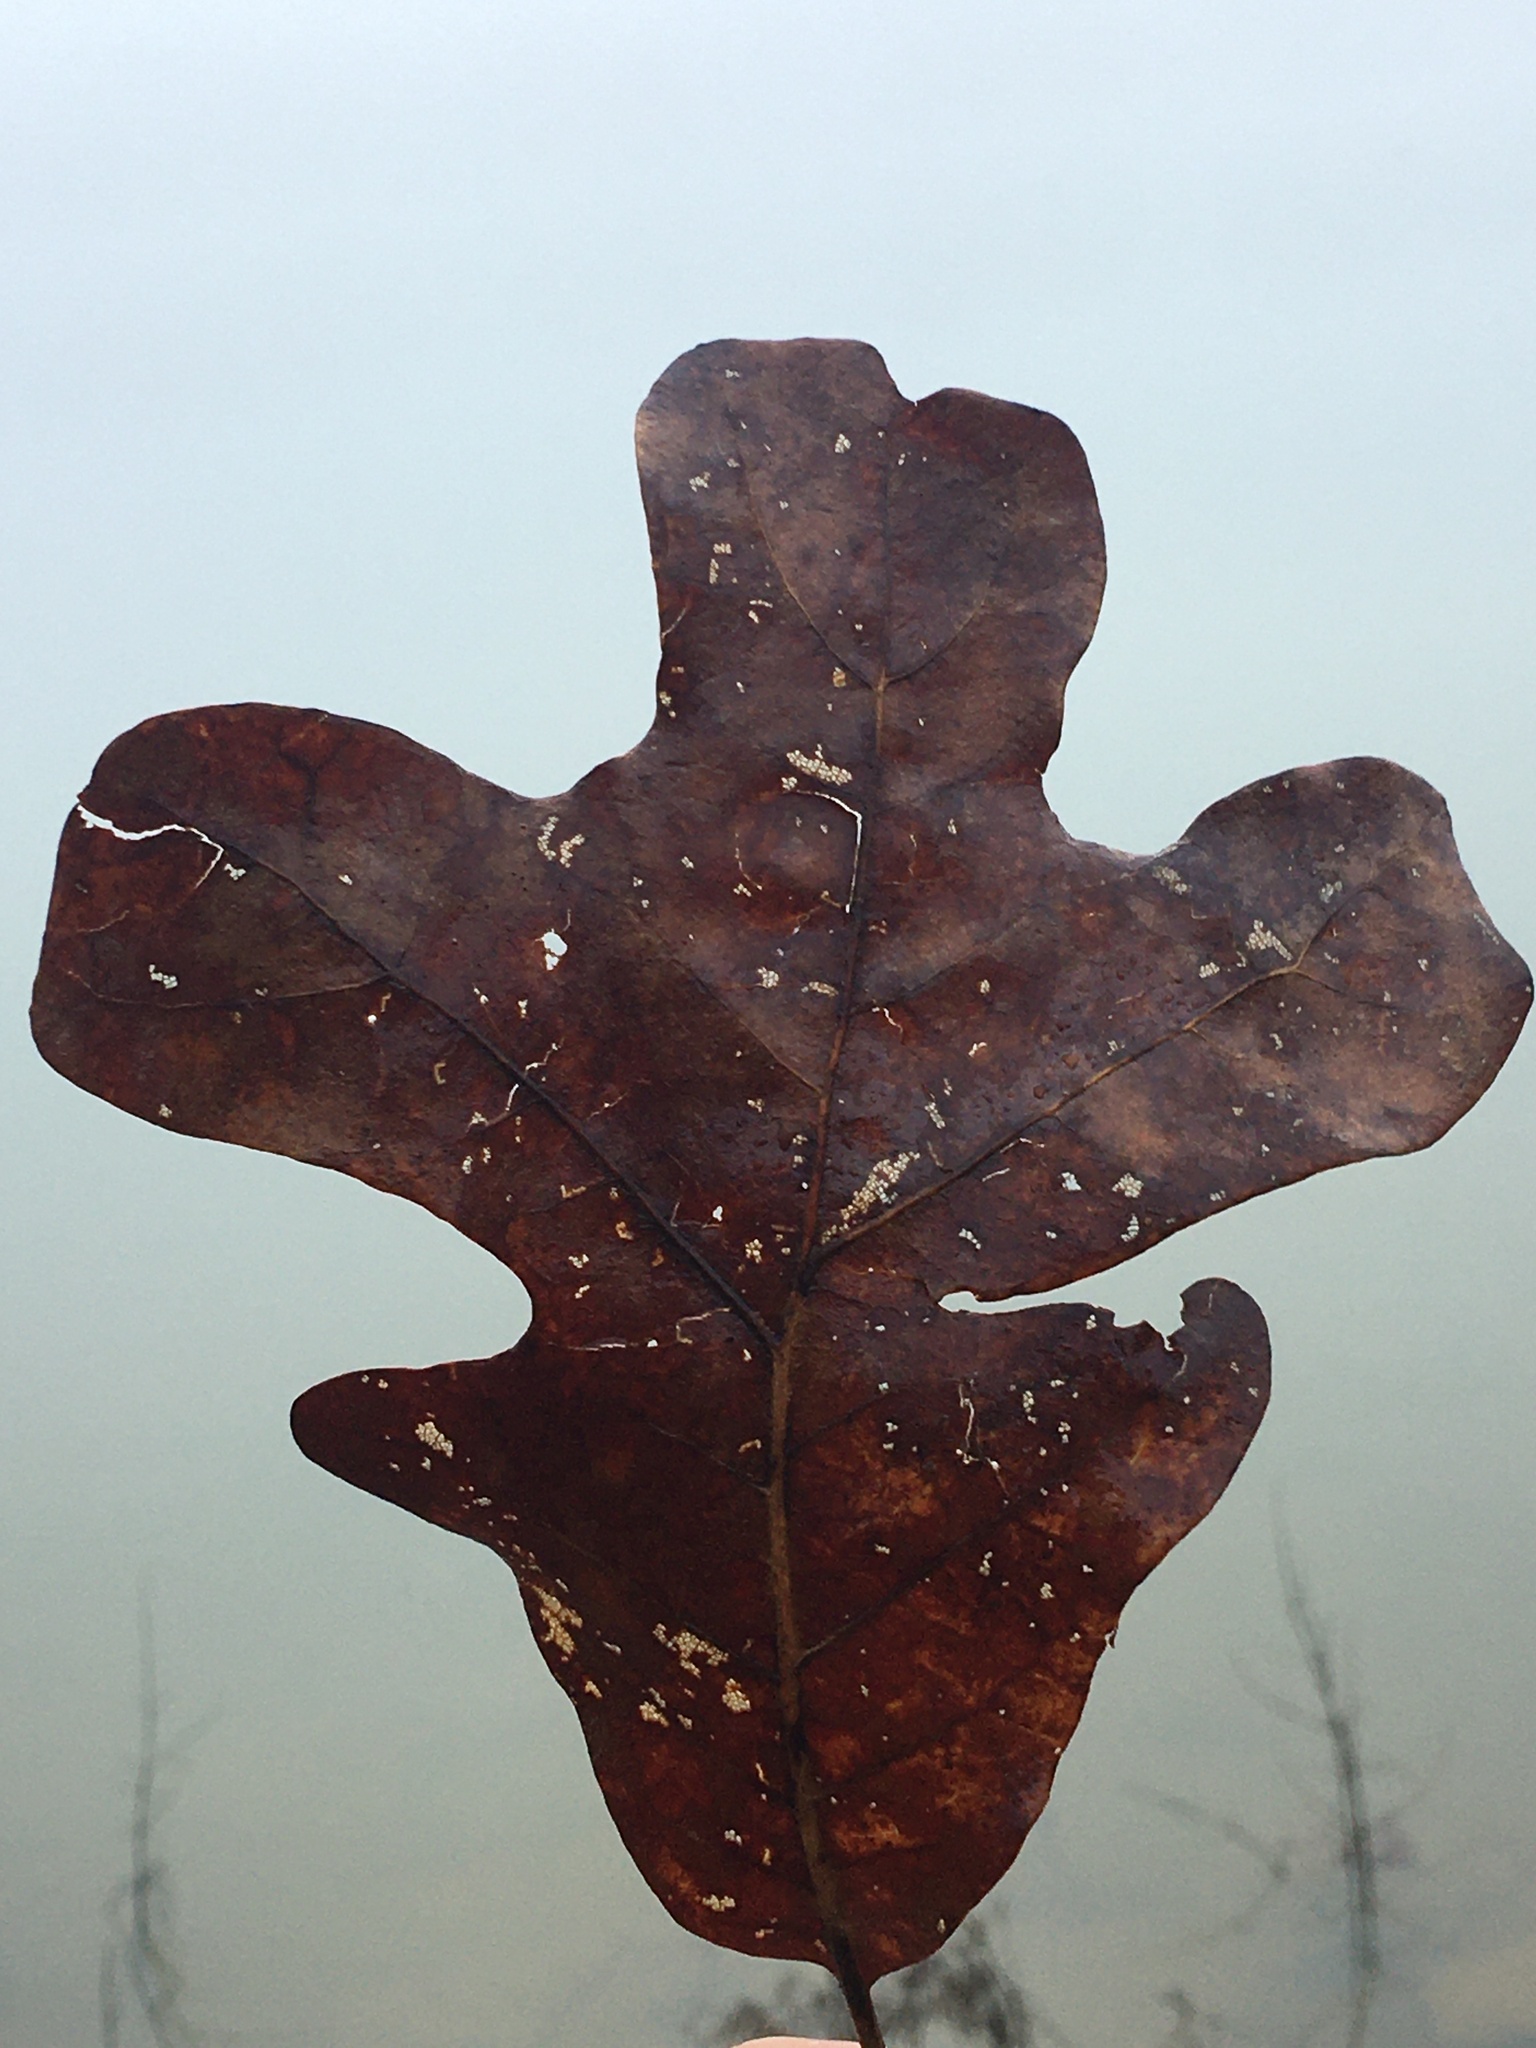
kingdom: Plantae
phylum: Tracheophyta
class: Magnoliopsida
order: Fagales
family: Fagaceae
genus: Quercus
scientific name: Quercus stellata
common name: Post oak
